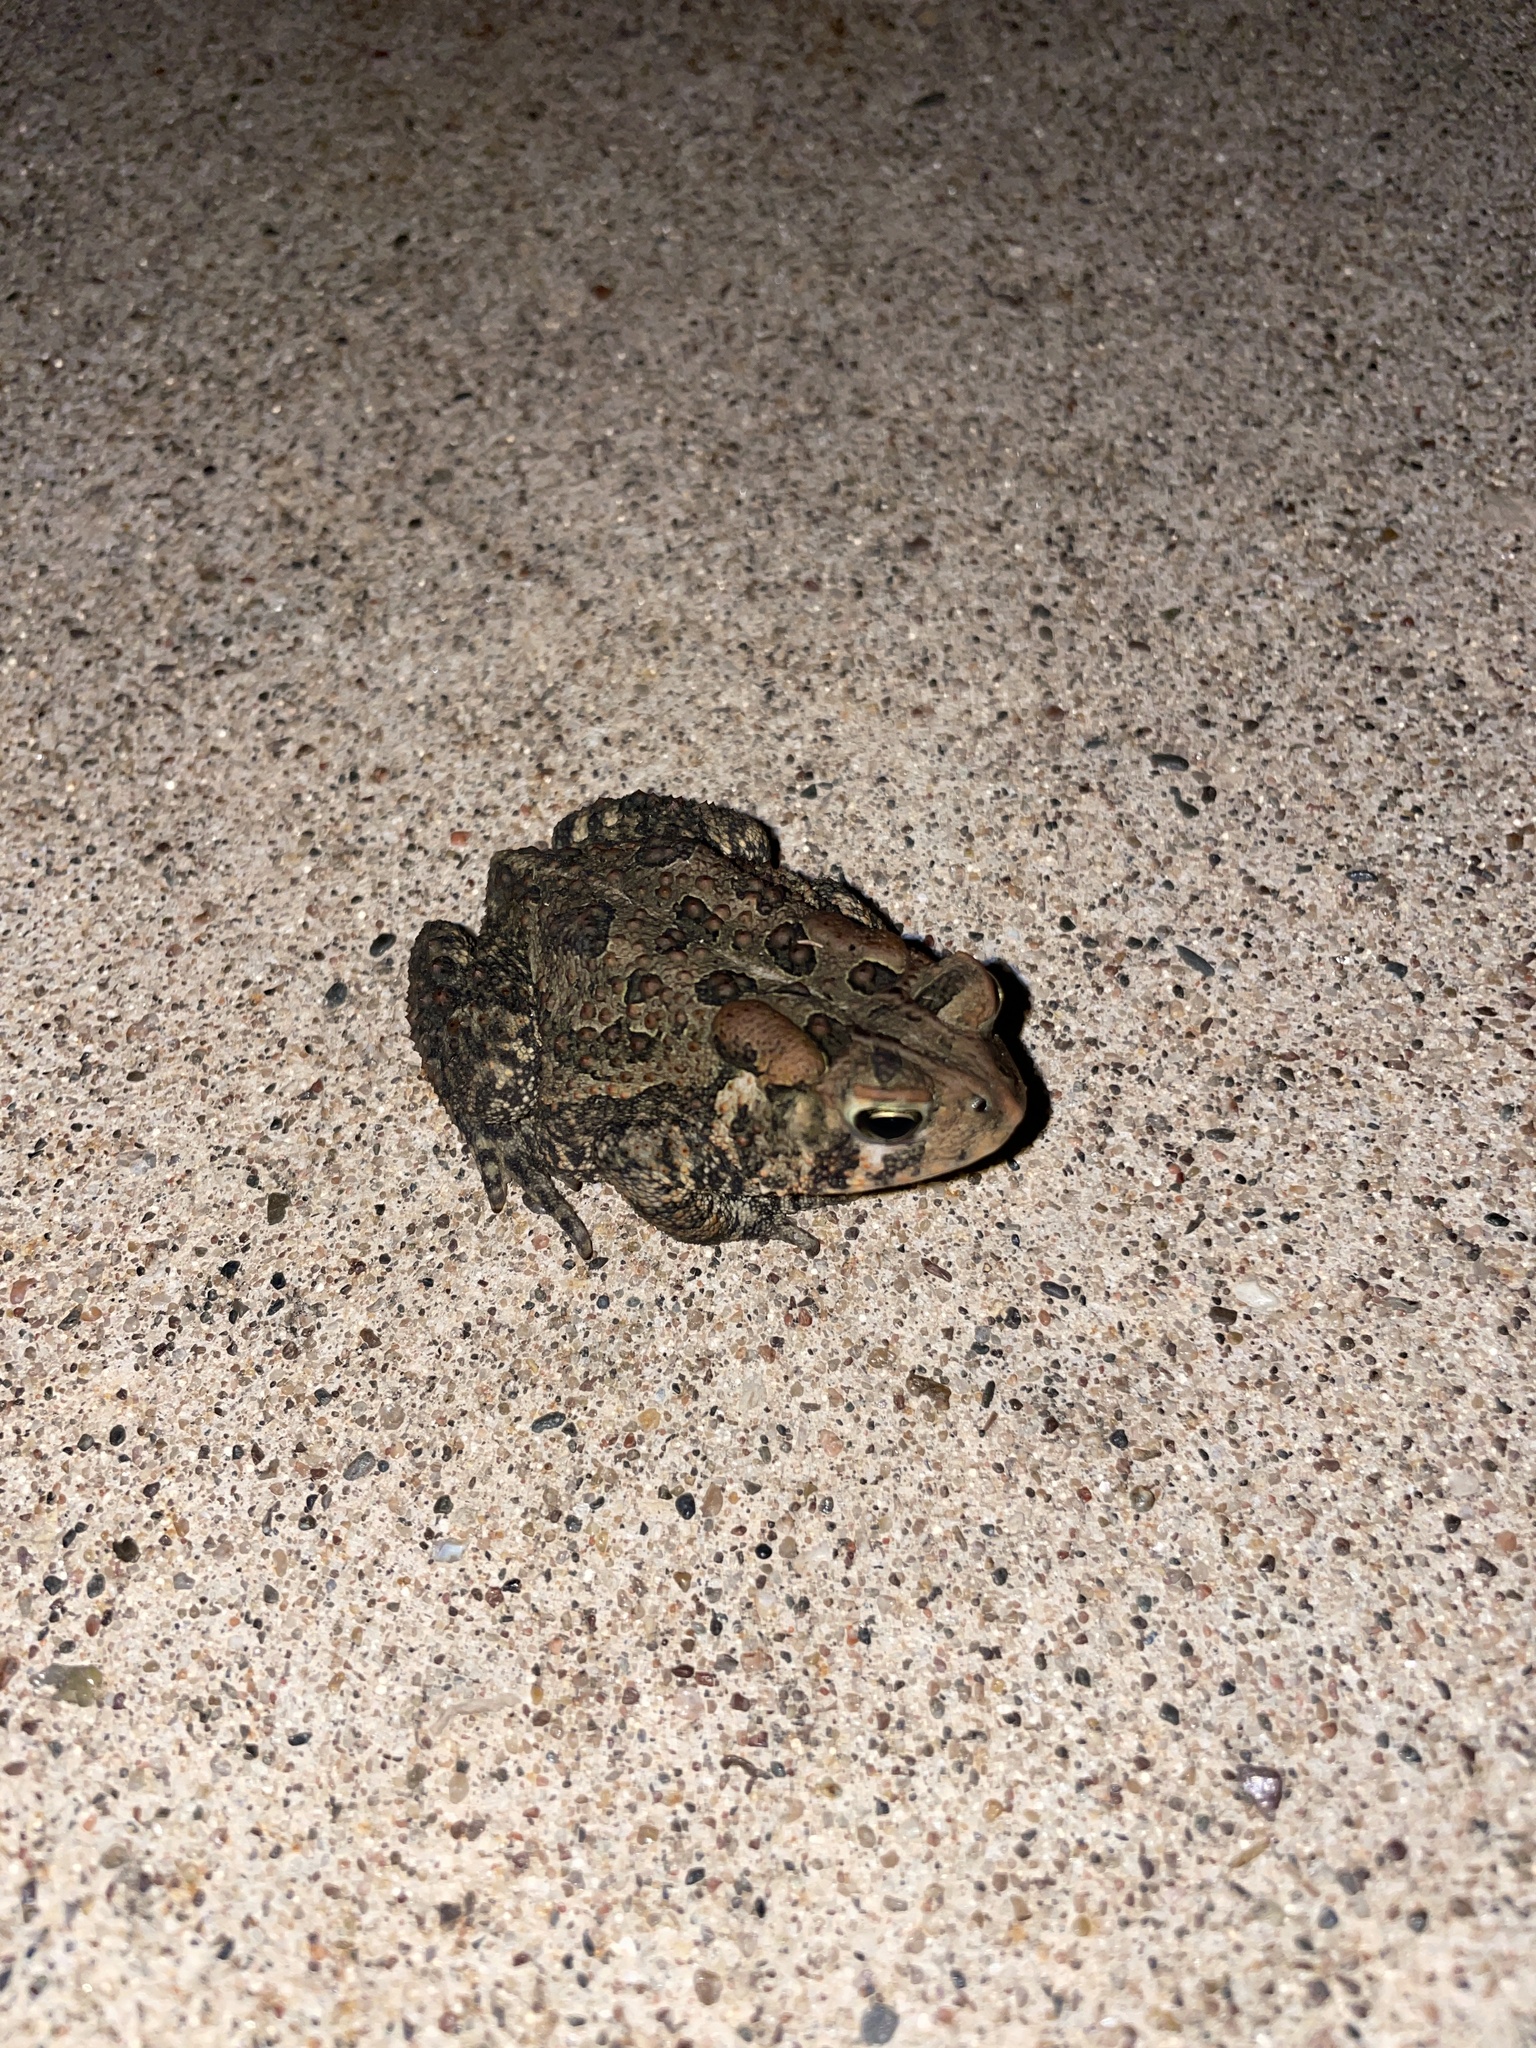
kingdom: Animalia
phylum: Chordata
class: Amphibia
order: Anura
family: Bufonidae
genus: Anaxyrus
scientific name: Anaxyrus americanus
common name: American toad
